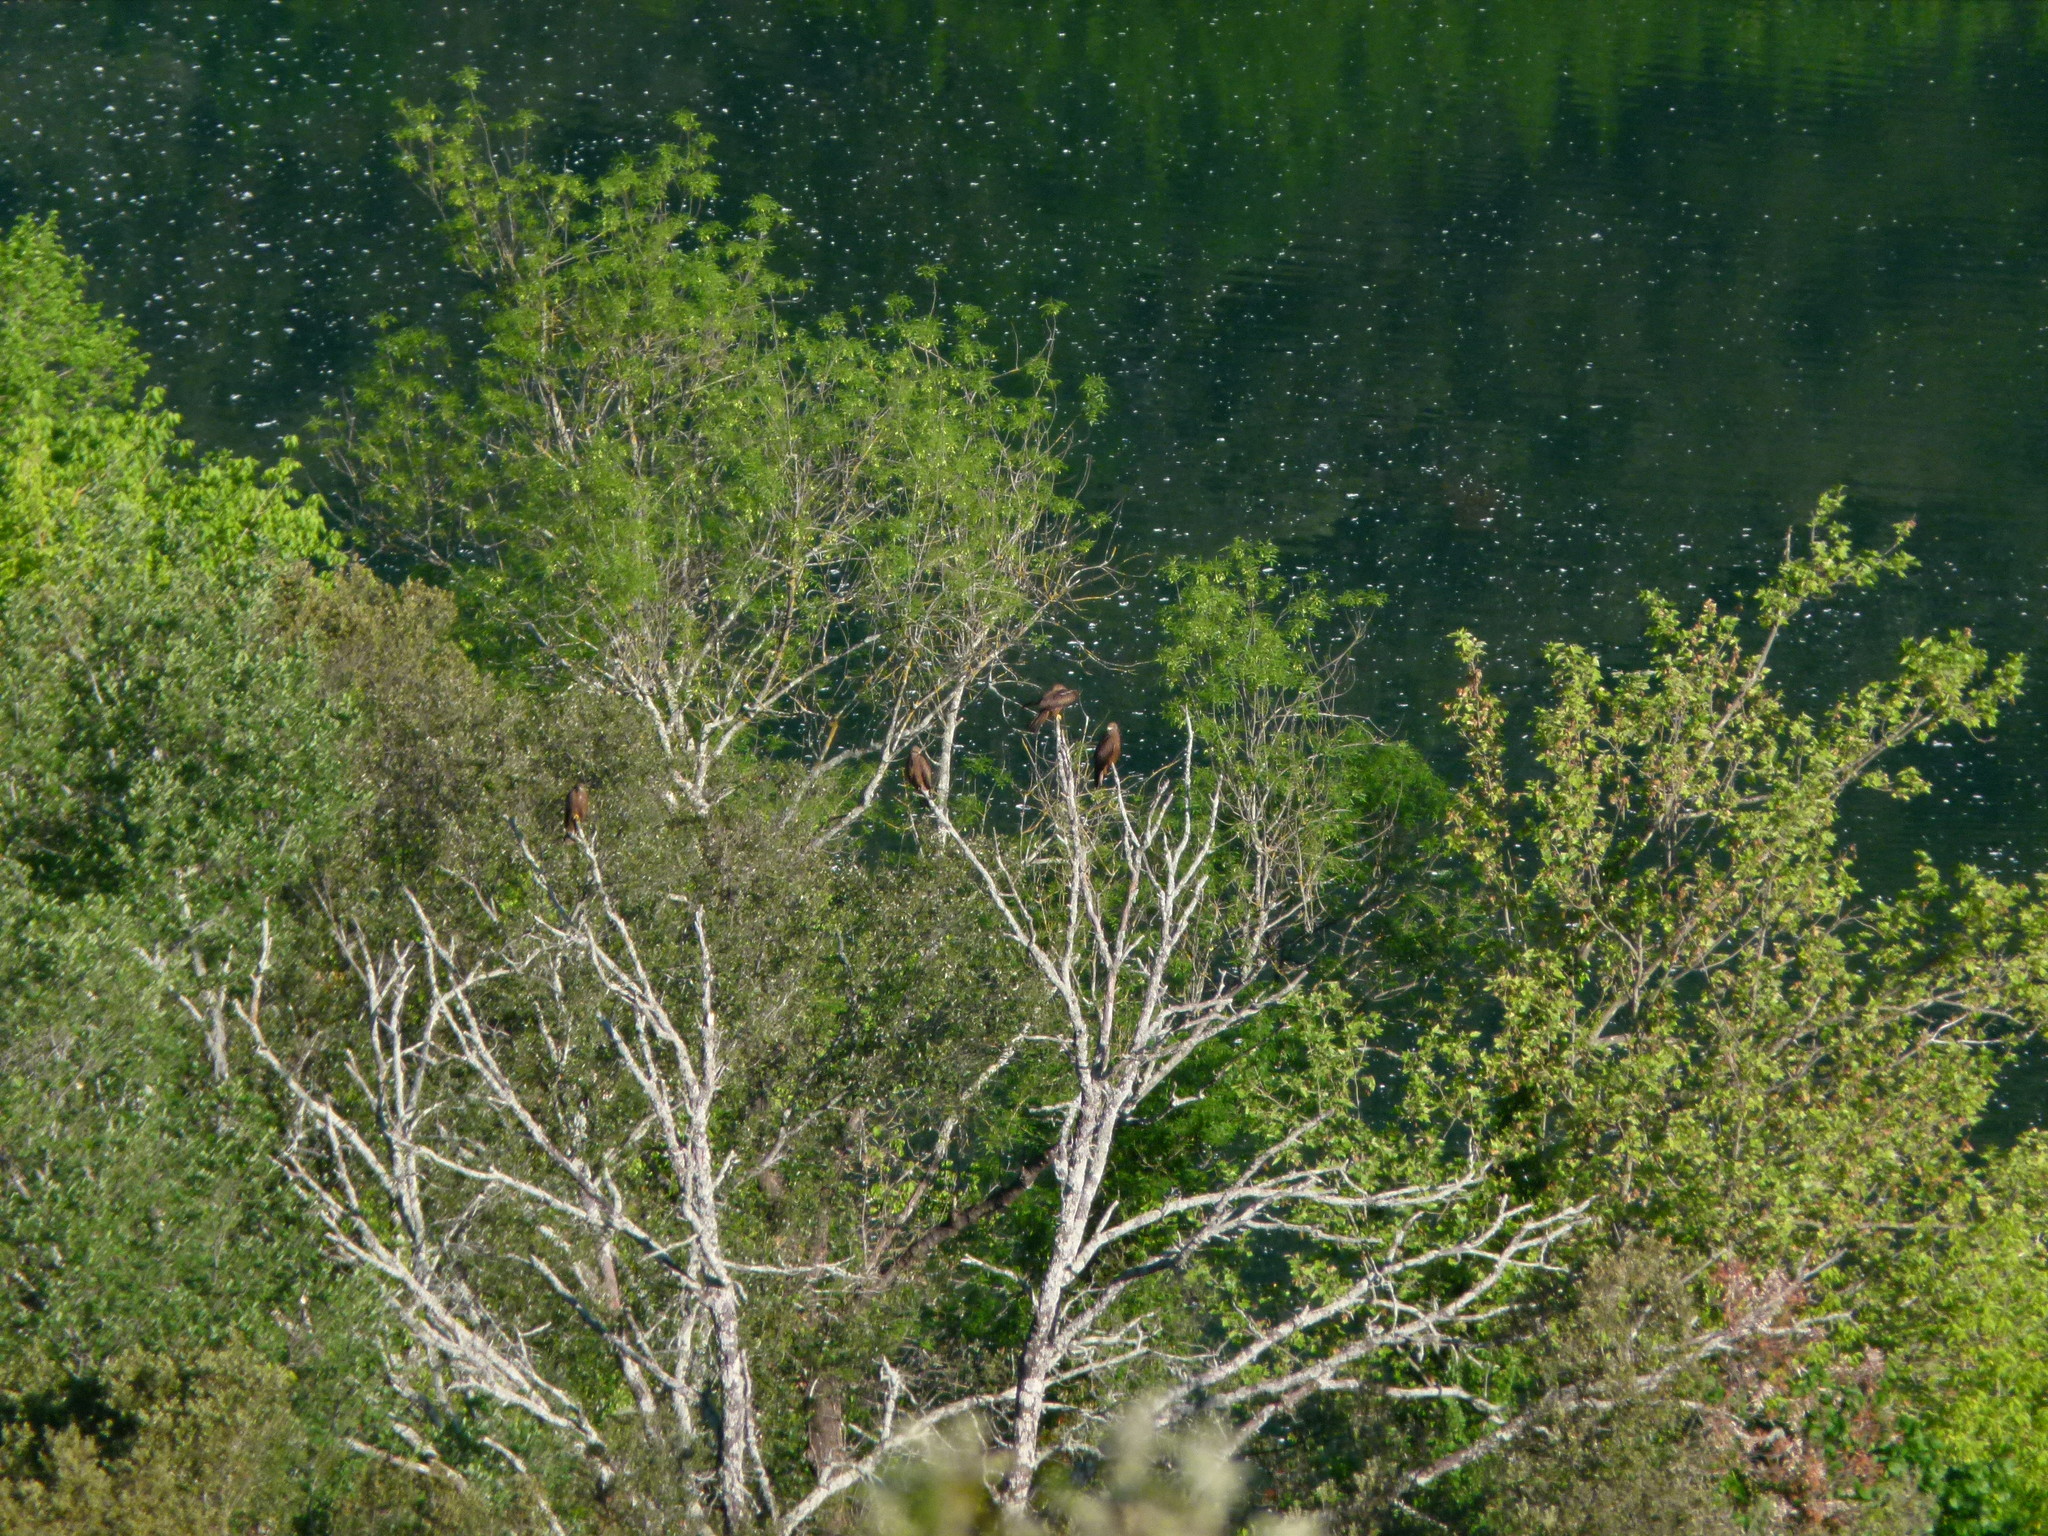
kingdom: Animalia
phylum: Chordata
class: Aves
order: Accipitriformes
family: Accipitridae
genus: Milvus
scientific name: Milvus migrans
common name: Black kite
